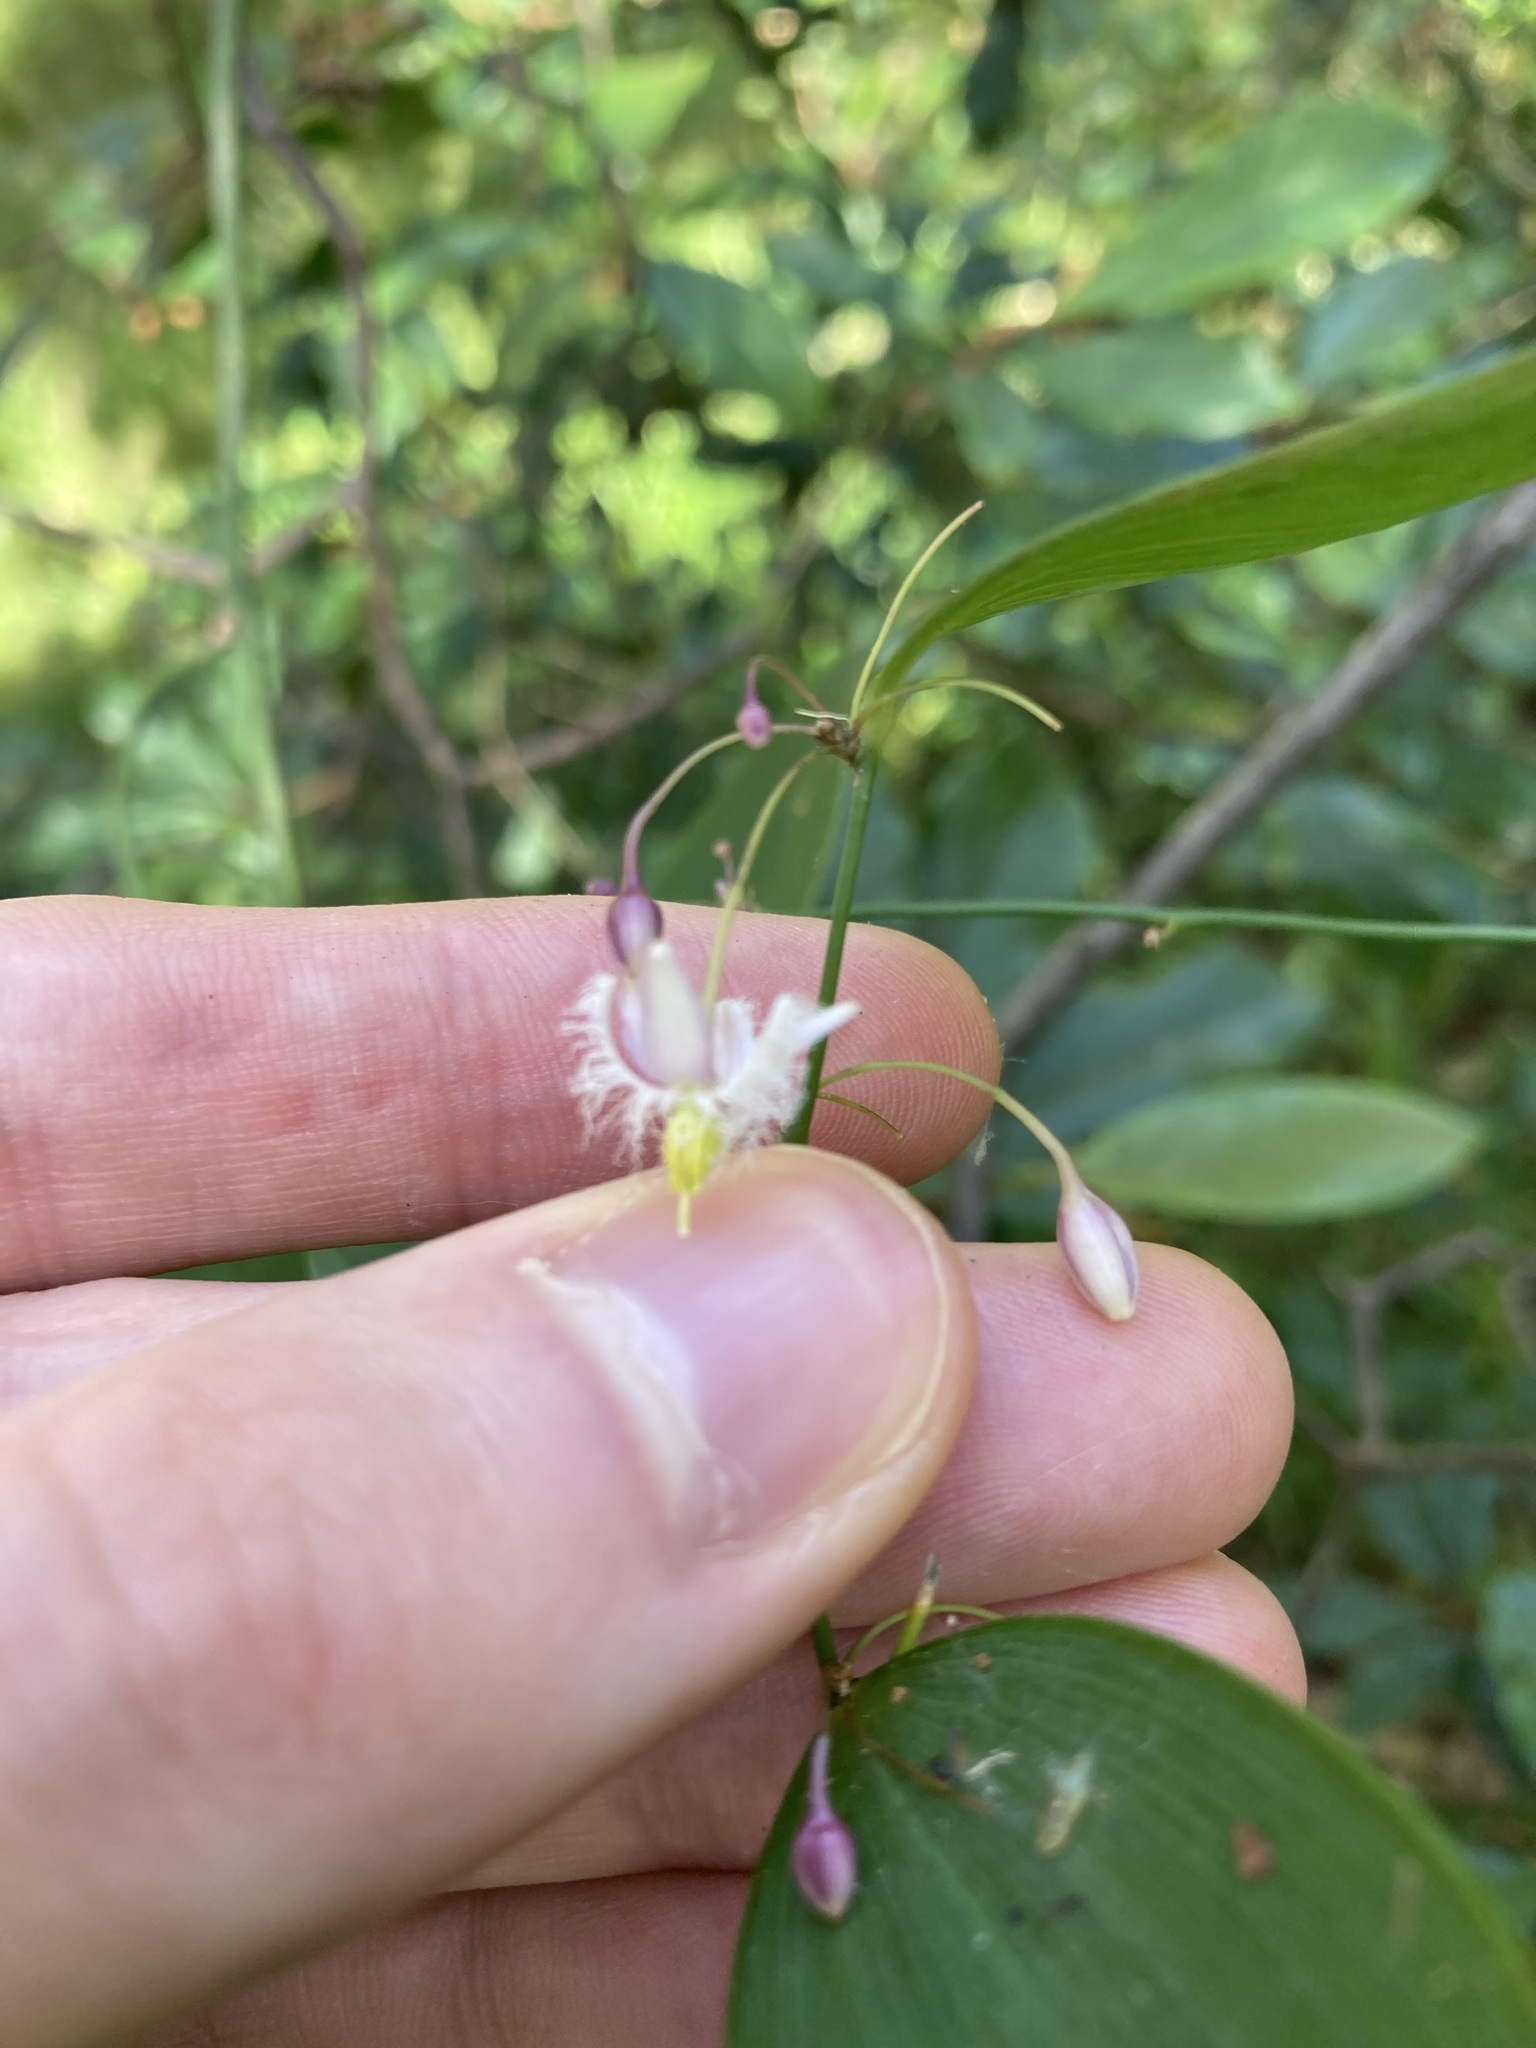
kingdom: Plantae
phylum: Tracheophyta
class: Liliopsida
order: Asparagales
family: Asparagaceae
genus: Eustrephus
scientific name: Eustrephus latifolius
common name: Orangevine
